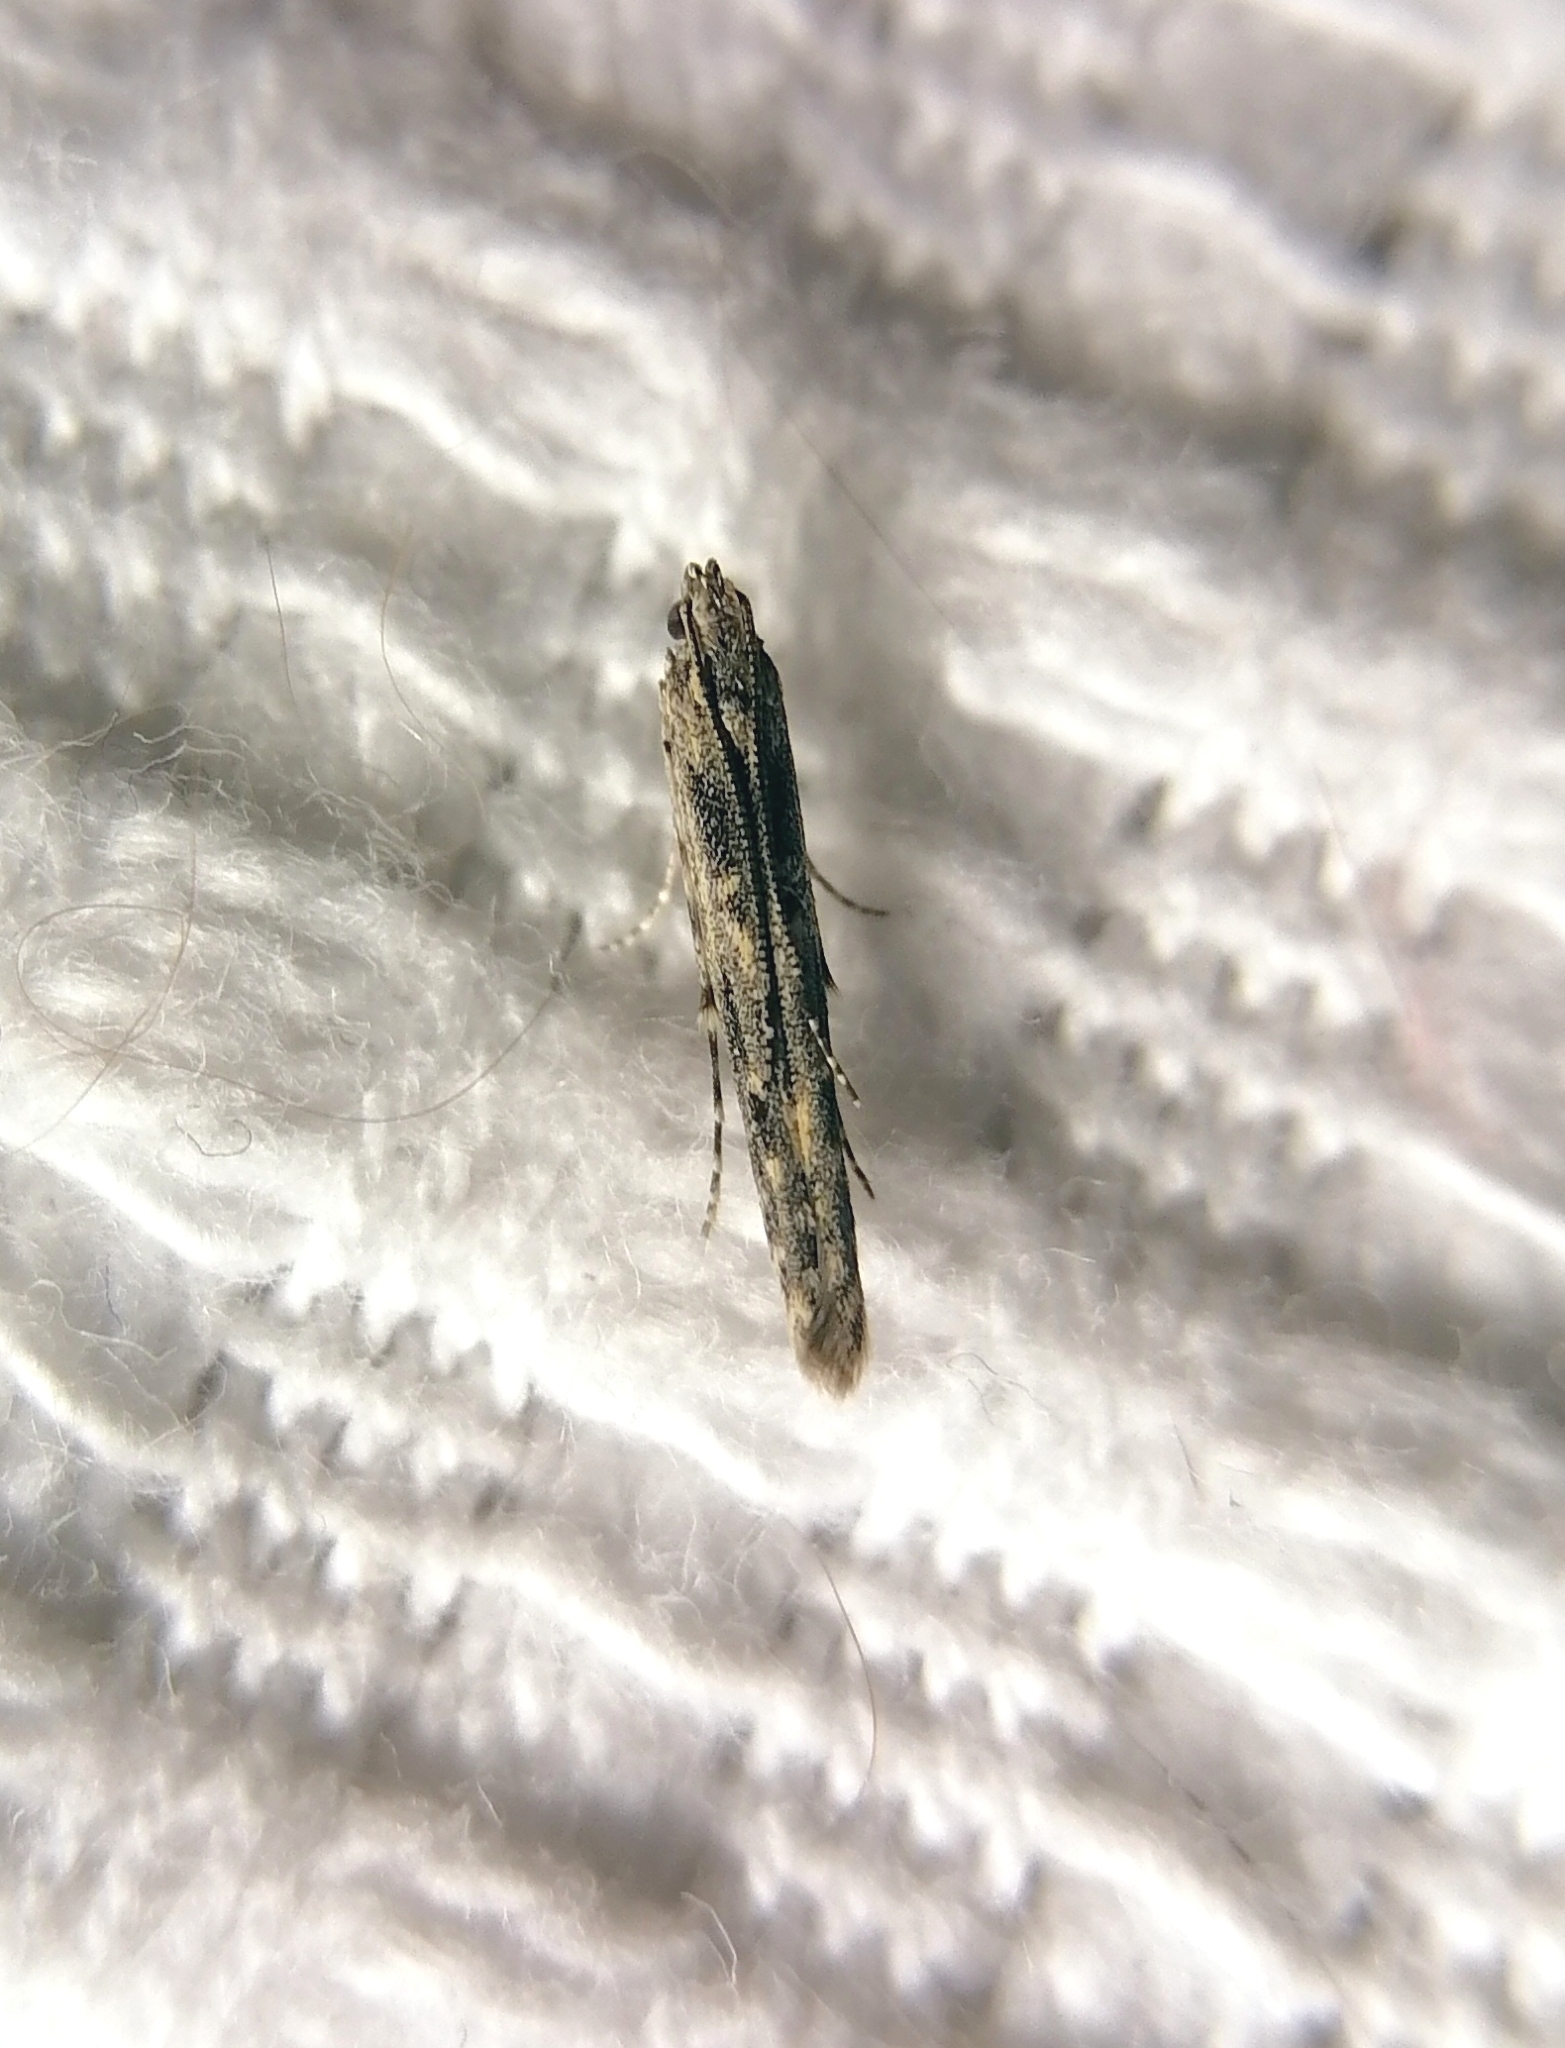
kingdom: Animalia
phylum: Arthropoda
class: Insecta
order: Lepidoptera
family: Batrachedridae
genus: Batrachedra
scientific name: Batrachedra praeangusta
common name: Poplar cosmet
